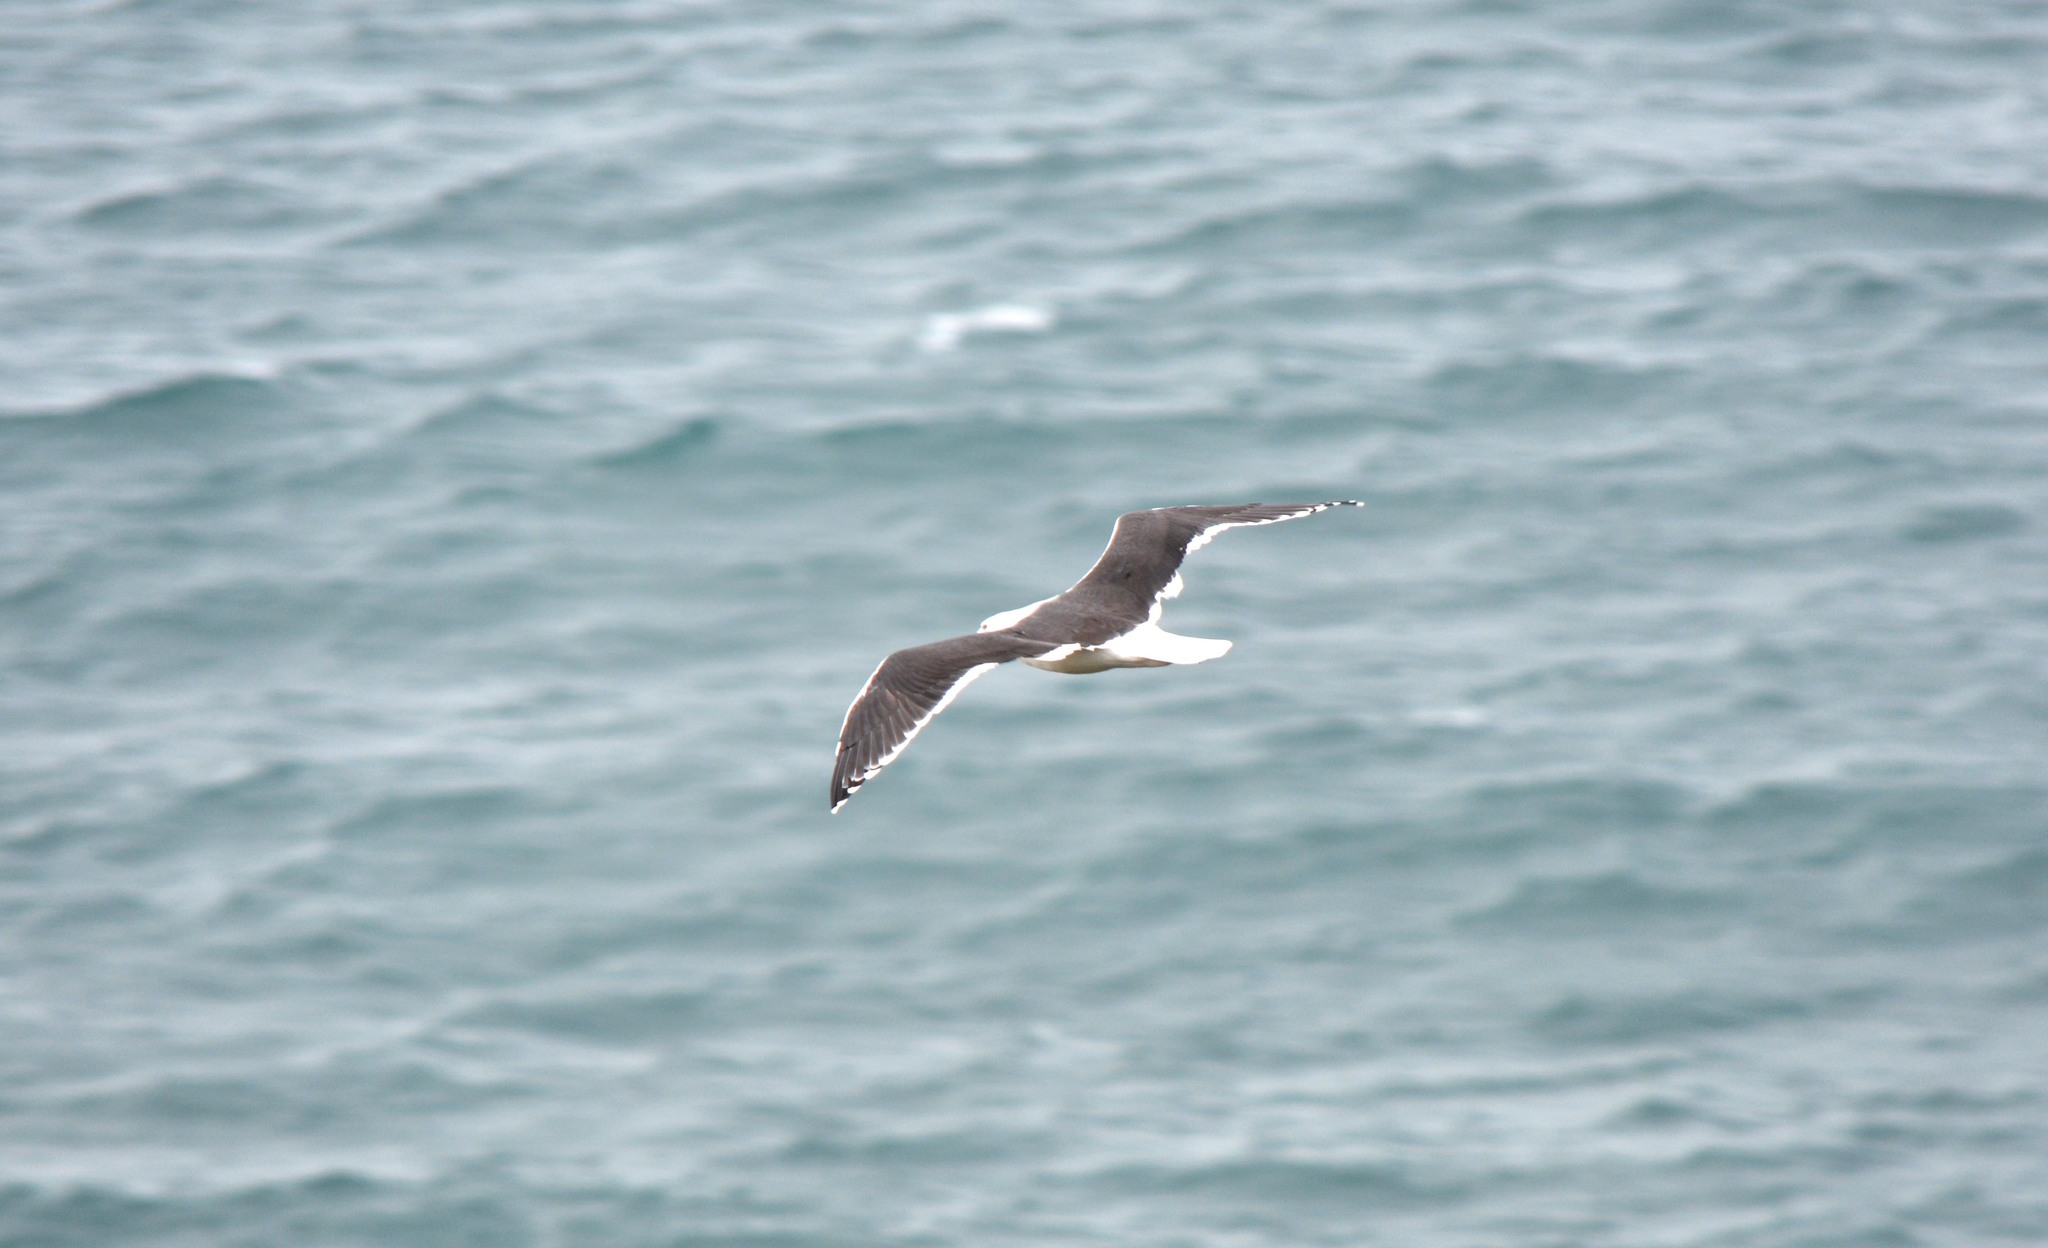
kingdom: Animalia
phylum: Chordata
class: Aves
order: Charadriiformes
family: Laridae
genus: Larus
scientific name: Larus marinus
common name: Great black-backed gull
